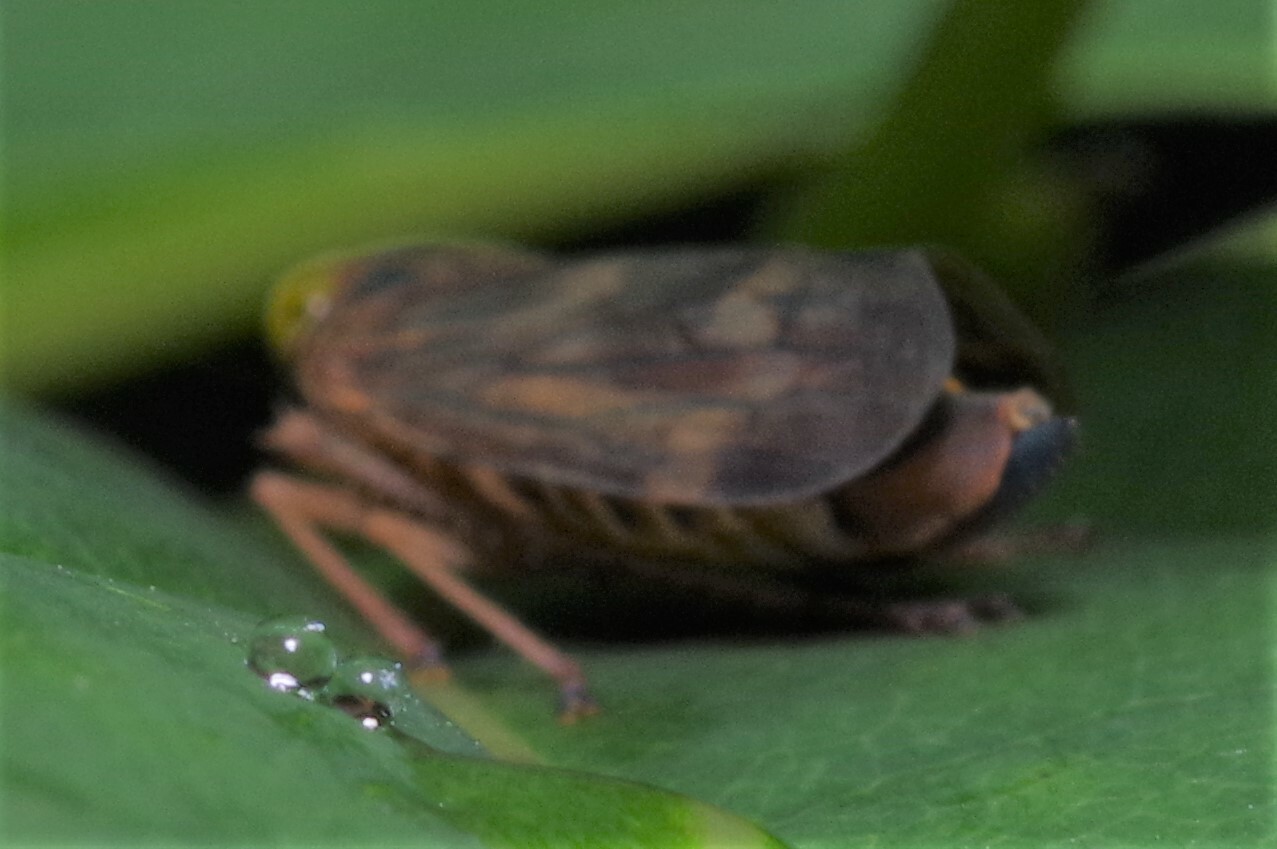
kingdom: Animalia
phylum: Arthropoda
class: Insecta
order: Hemiptera
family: Cicadellidae
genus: Jikradia
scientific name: Jikradia olitoria
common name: Coppery leafhopper
